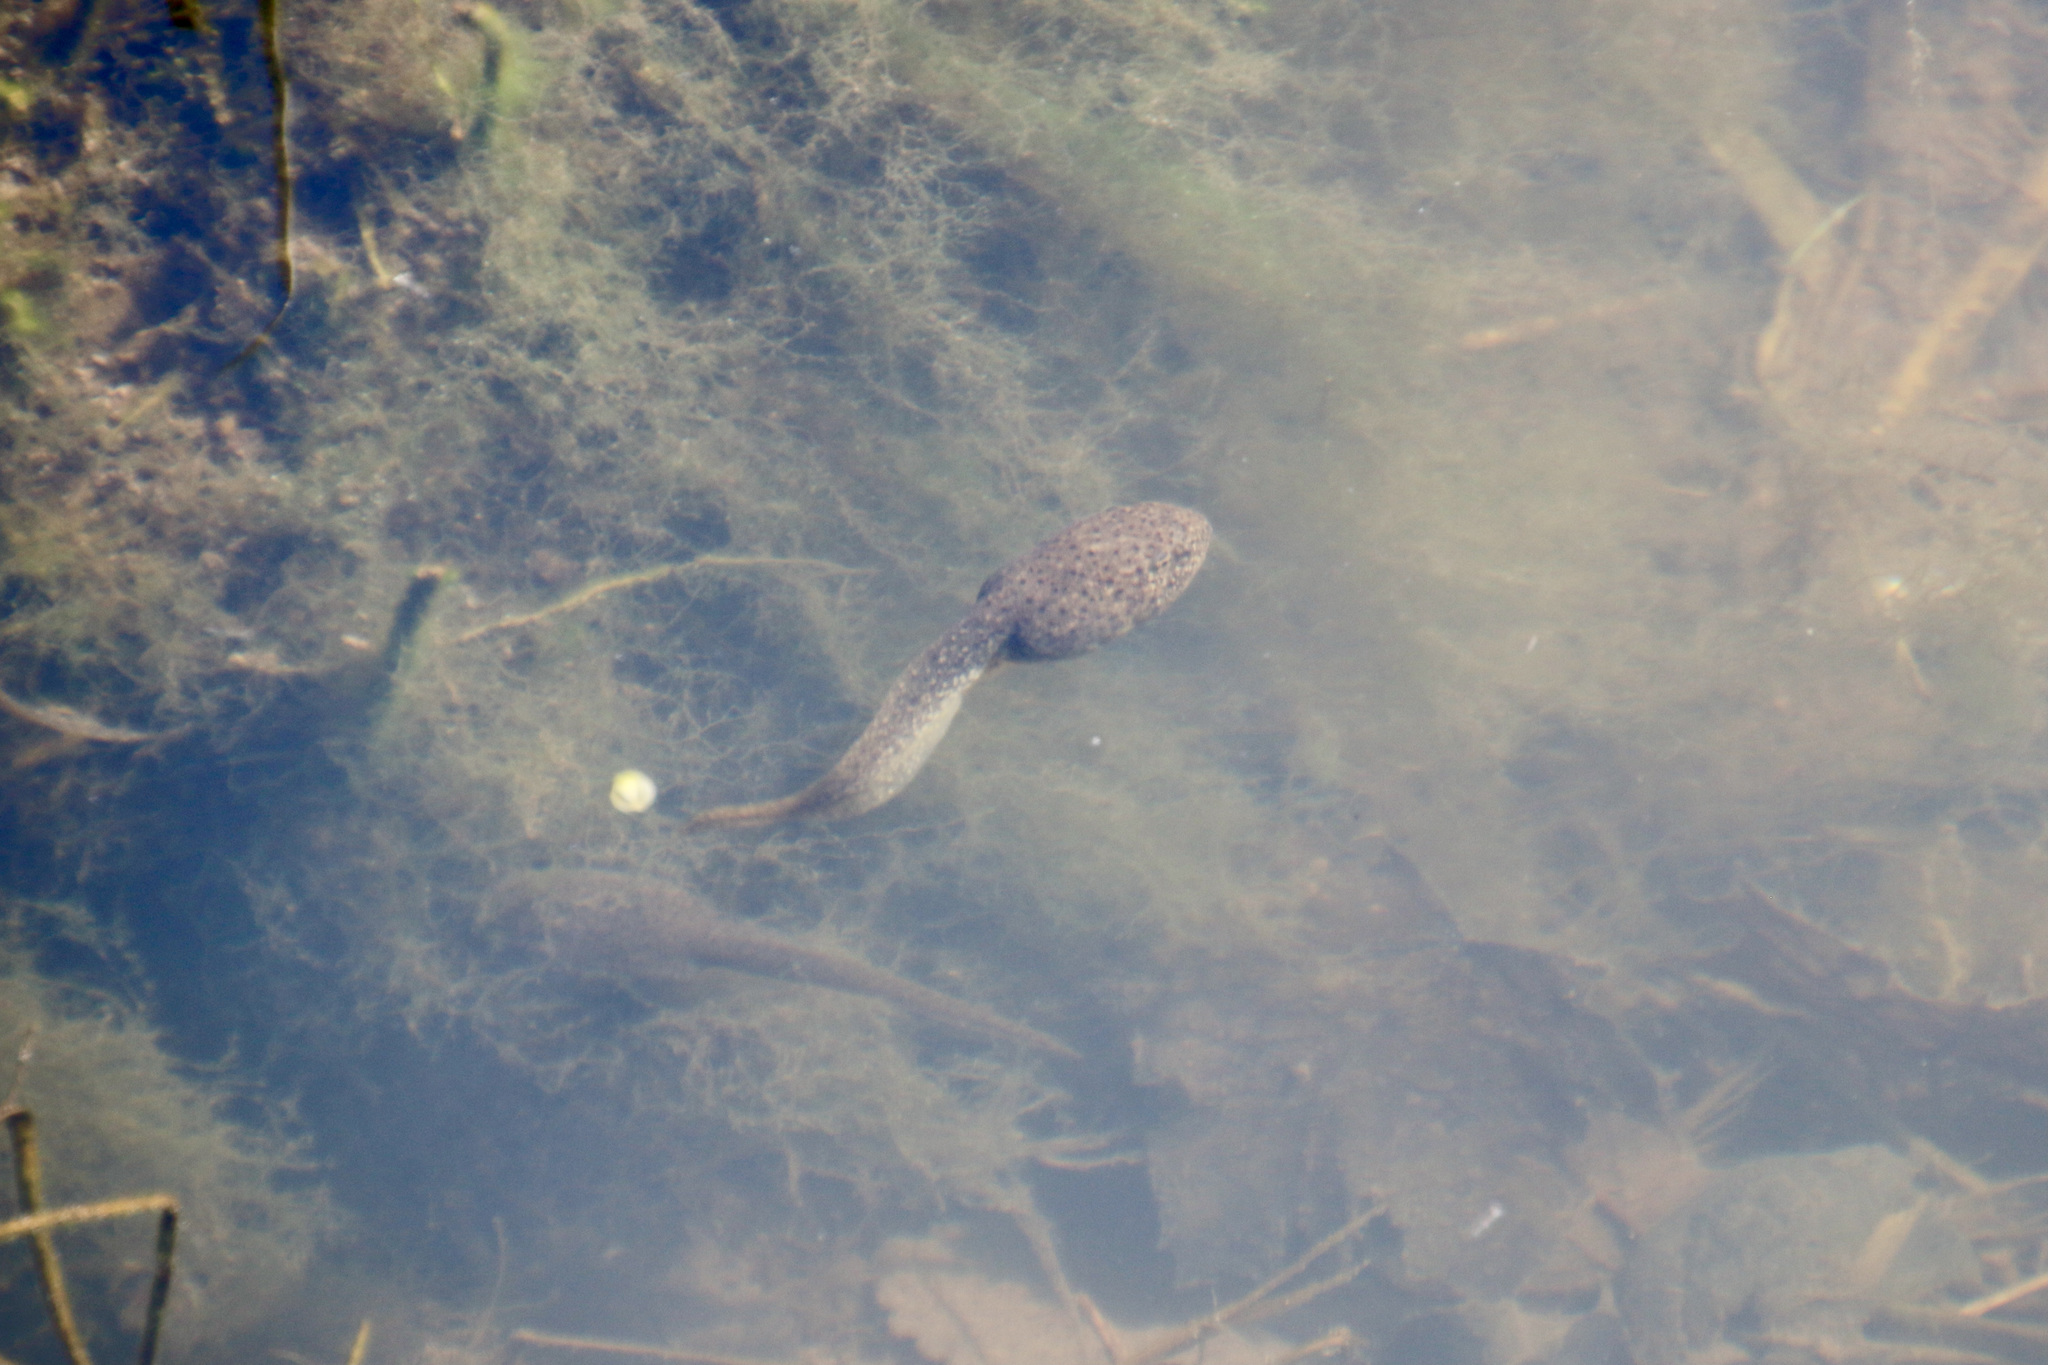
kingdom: Animalia
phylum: Chordata
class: Amphibia
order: Anura
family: Ranidae
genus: Lithobates
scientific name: Lithobates catesbeianus
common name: American bullfrog
